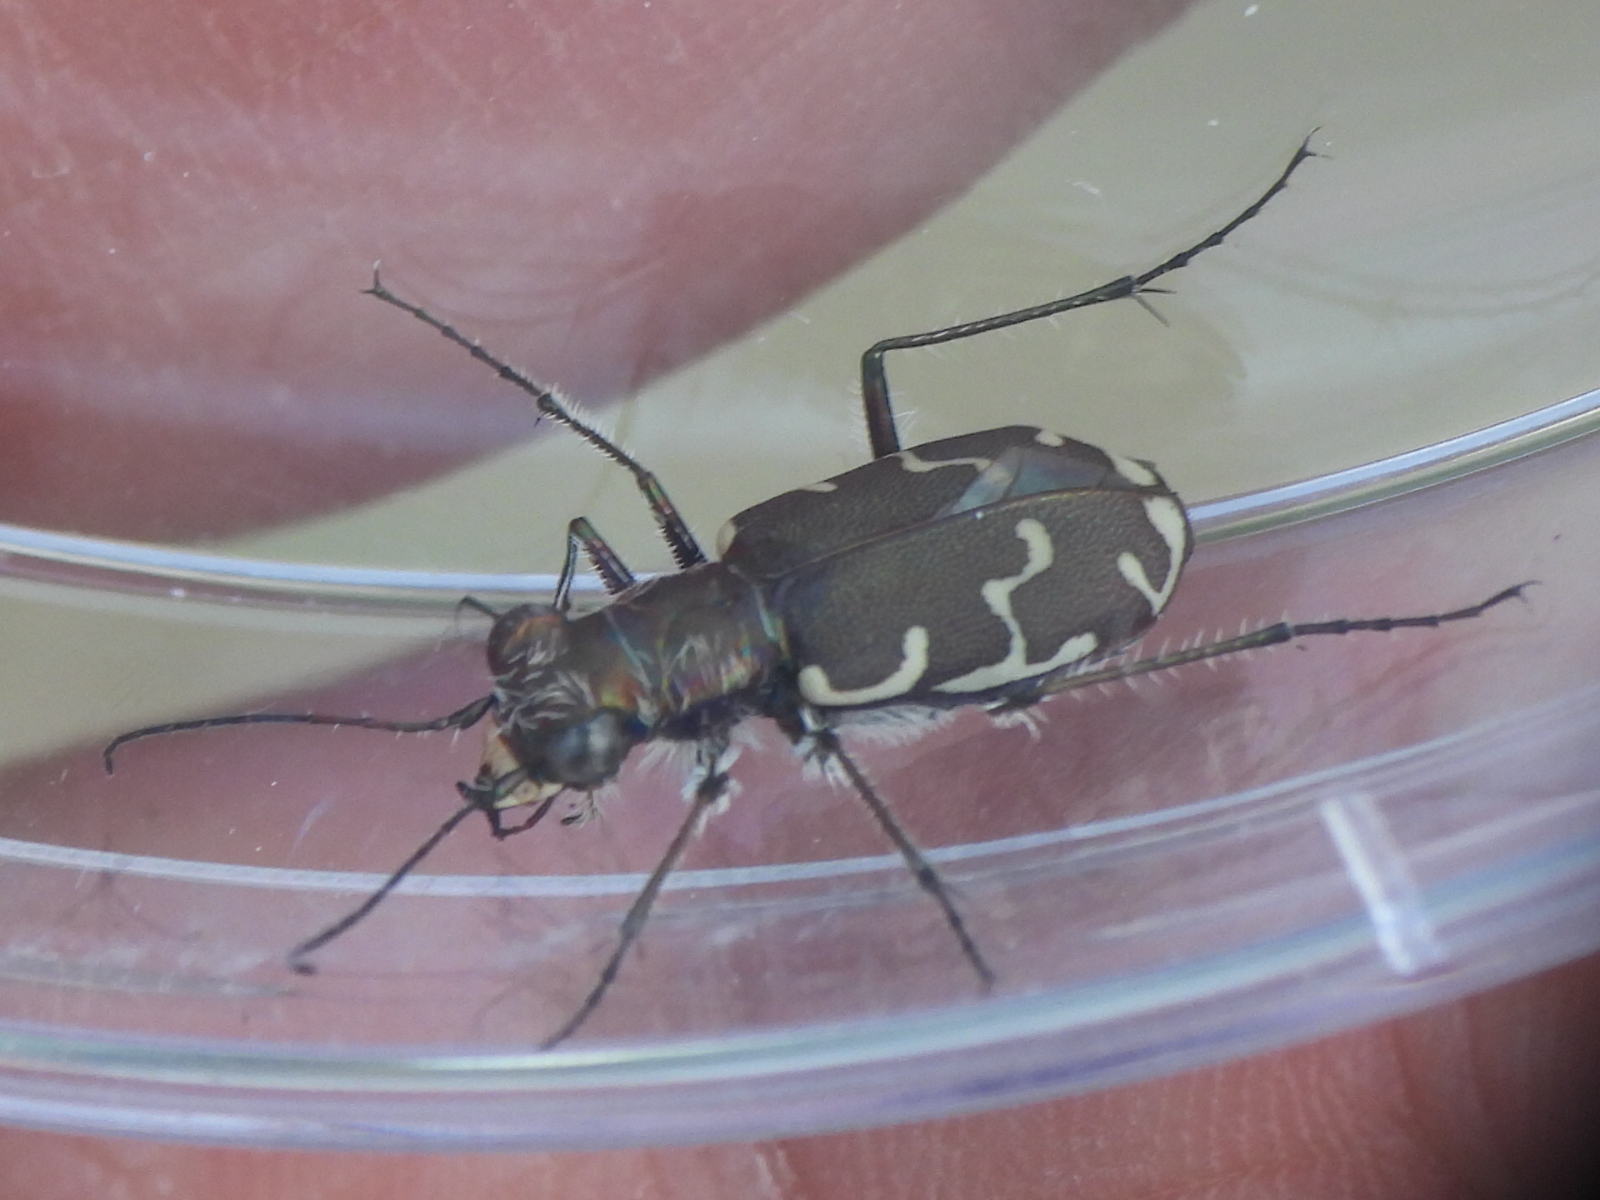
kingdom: Animalia
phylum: Arthropoda
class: Insecta
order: Coleoptera
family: Carabidae
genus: Cicindela
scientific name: Cicindela repanda
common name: Bronzed tiger beetle
